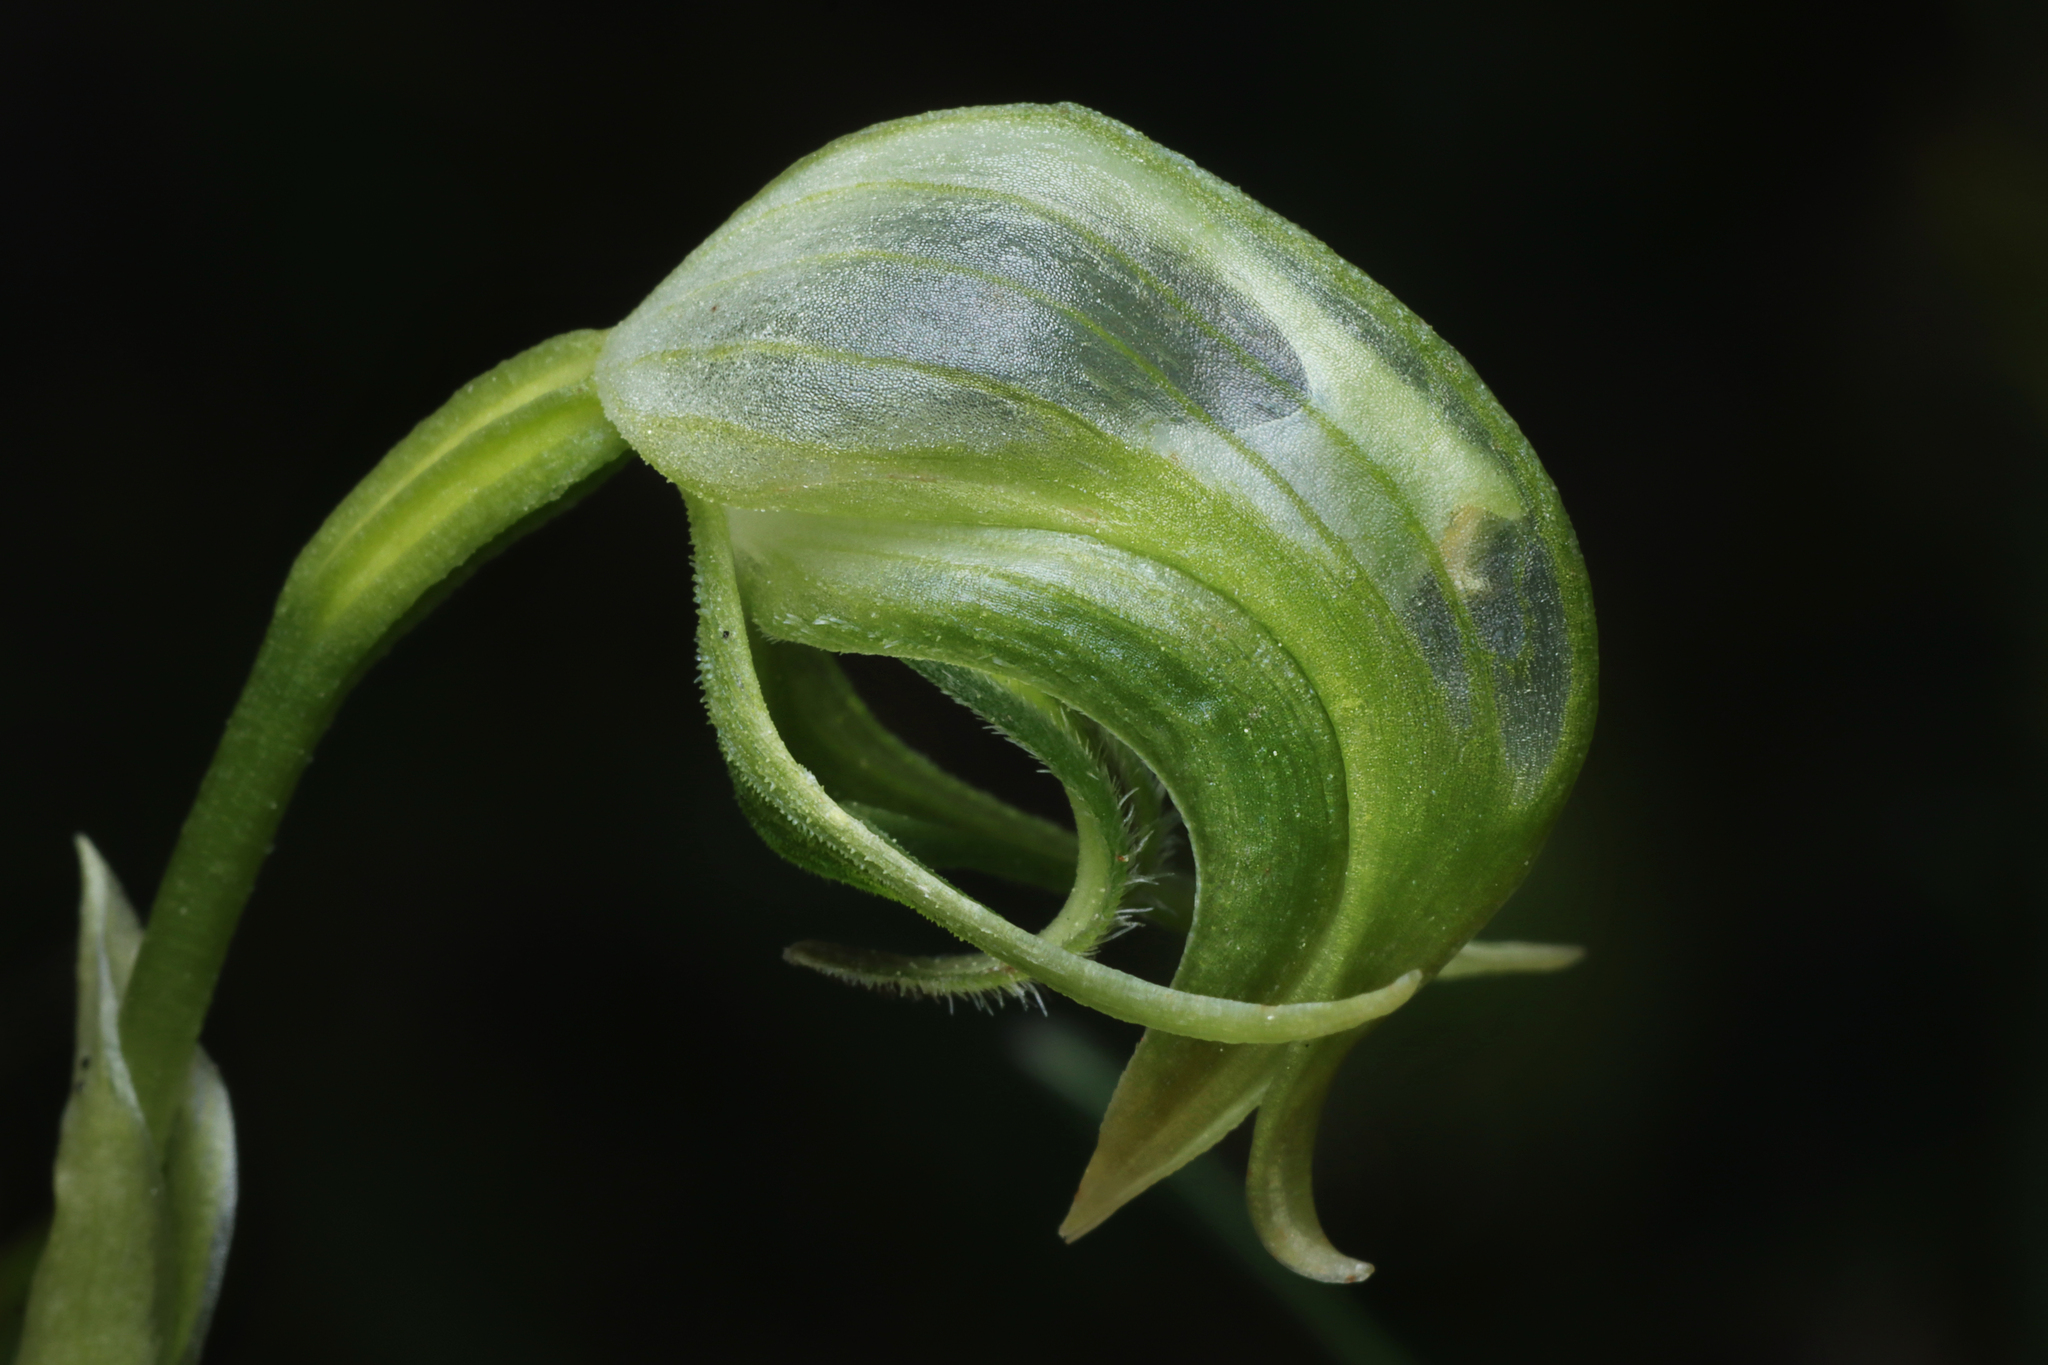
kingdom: Plantae
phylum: Tracheophyta
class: Liliopsida
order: Asparagales
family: Orchidaceae
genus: Pterostylis
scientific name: Pterostylis nutans
